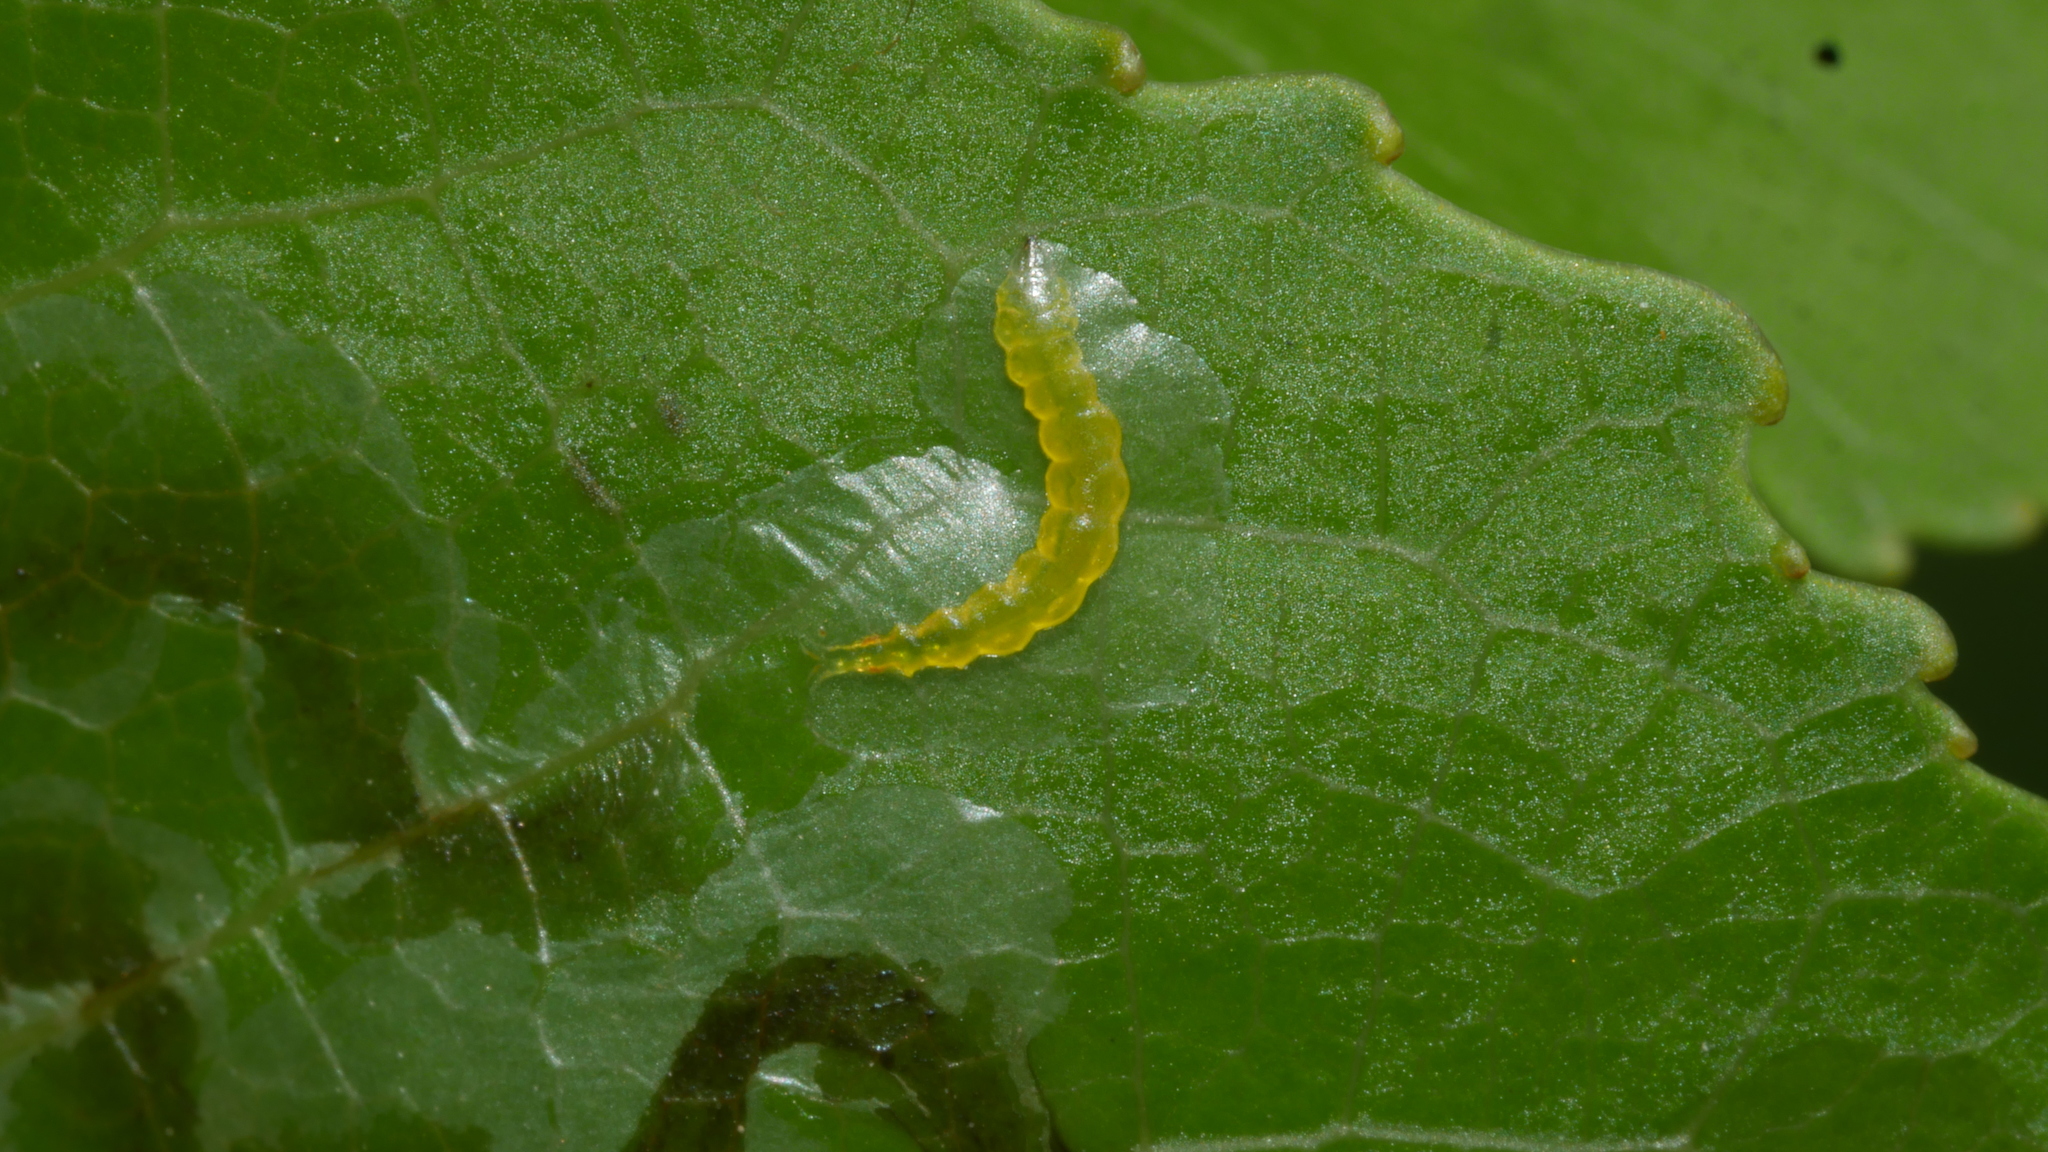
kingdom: Animalia
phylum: Arthropoda
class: Insecta
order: Lepidoptera
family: Gracillariidae
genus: Phyllocnistis
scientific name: Phyllocnistis liquidambarisella
